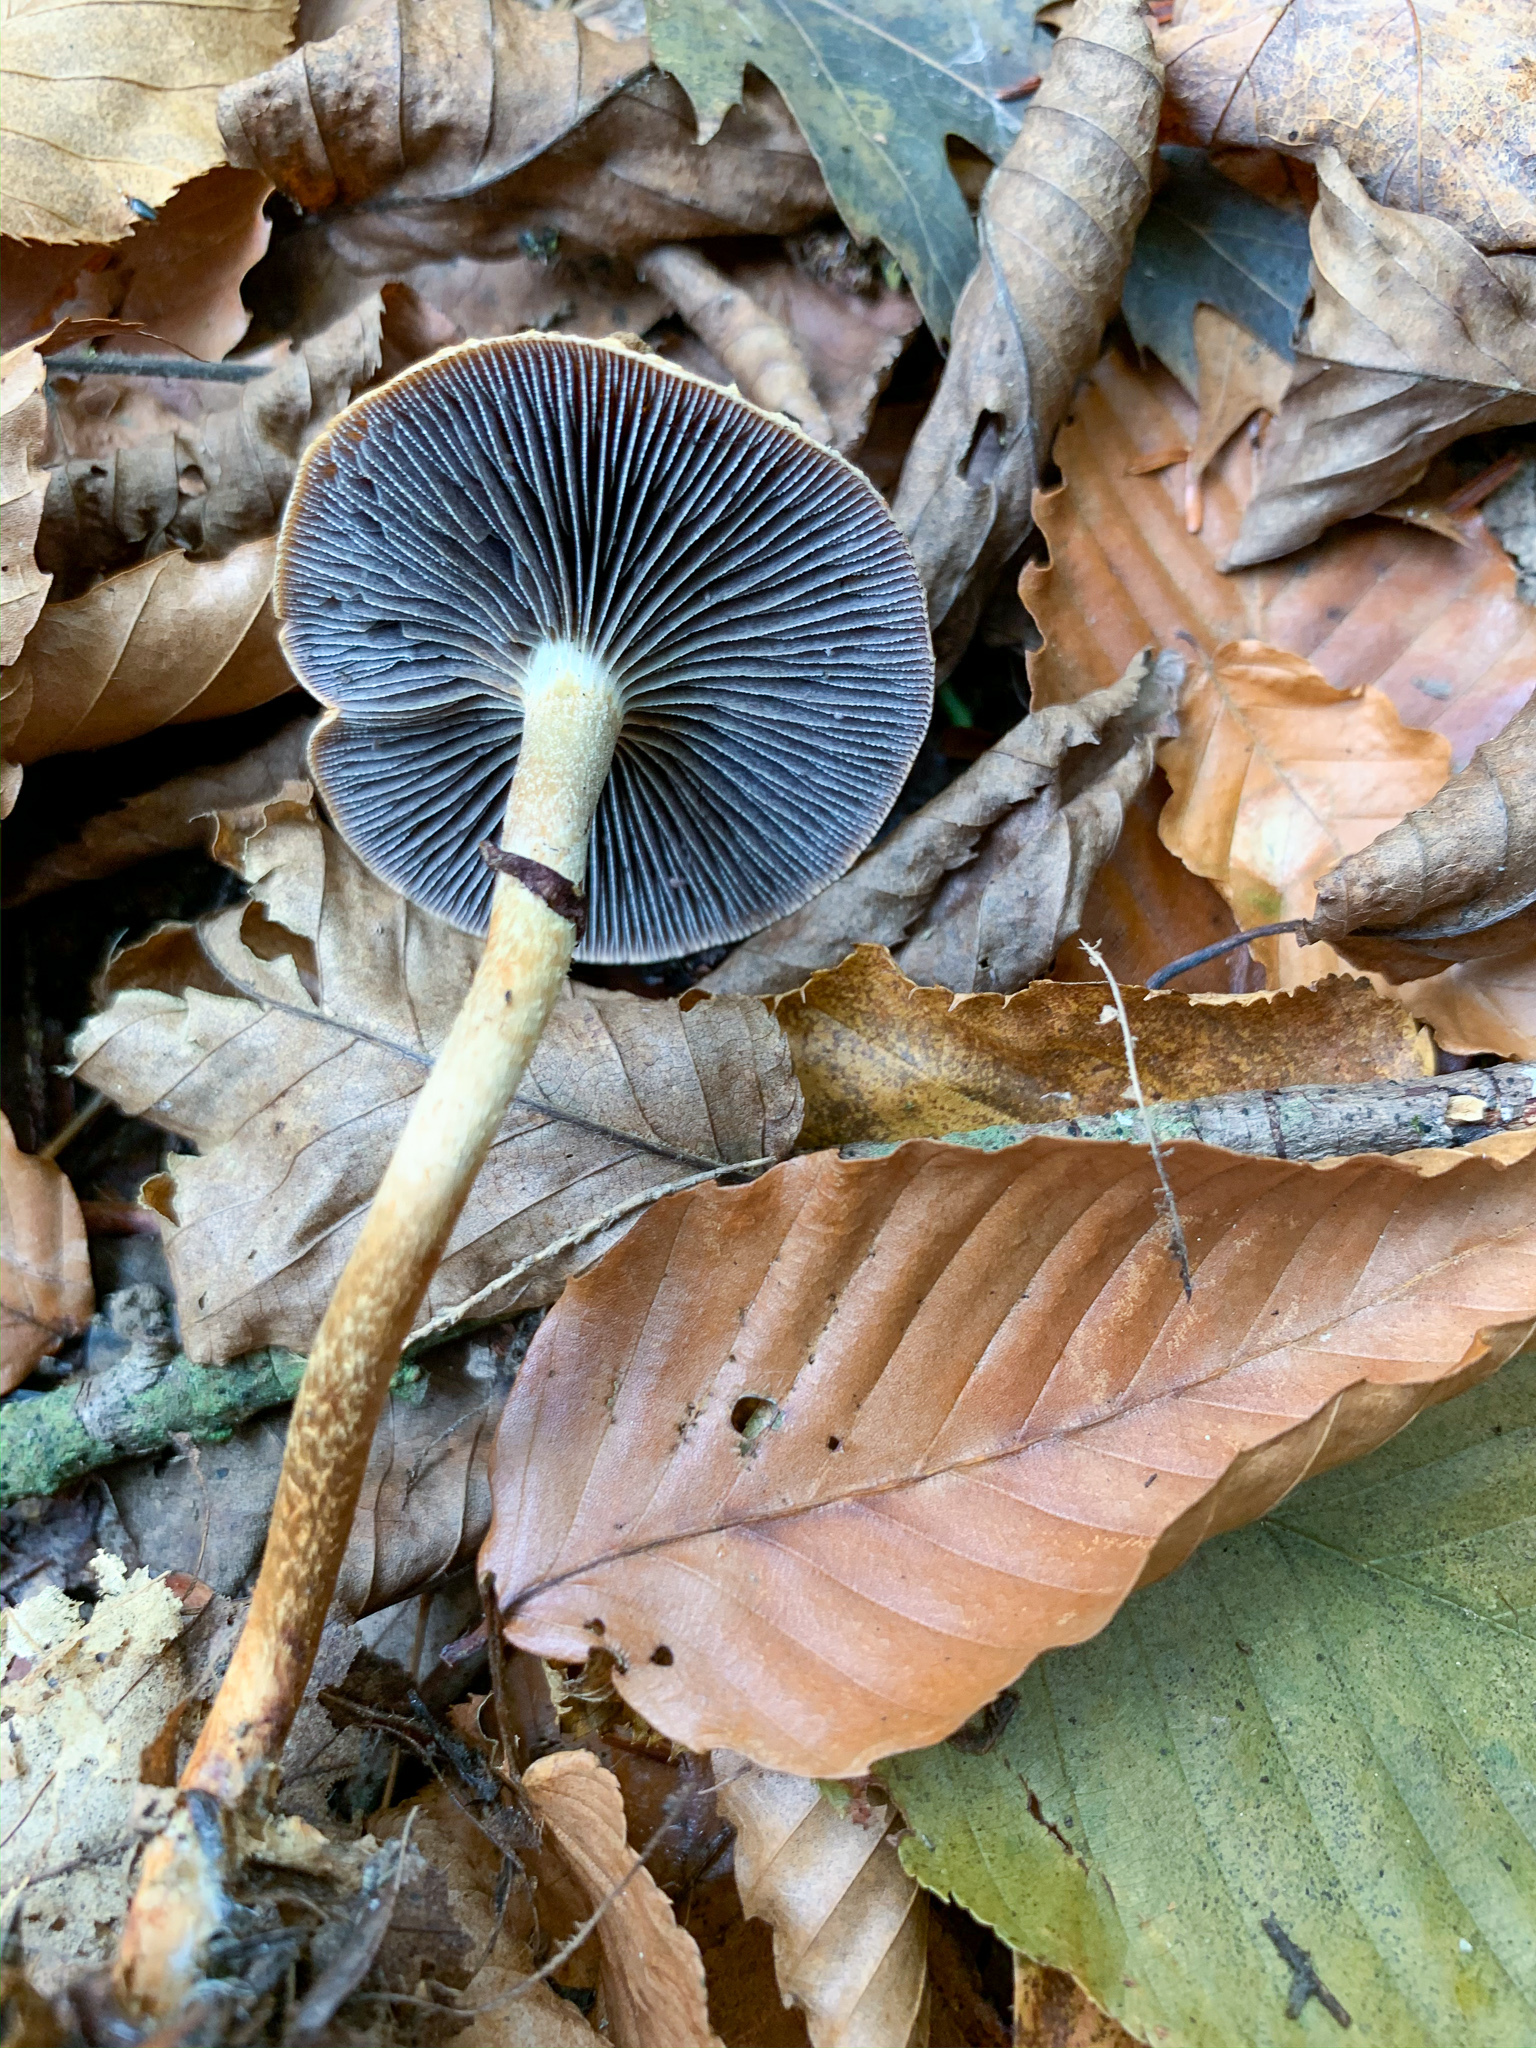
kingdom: Fungi
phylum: Basidiomycota
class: Agaricomycetes
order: Agaricales
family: Strophariaceae
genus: Leratiomyces
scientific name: Leratiomyces squamosus
